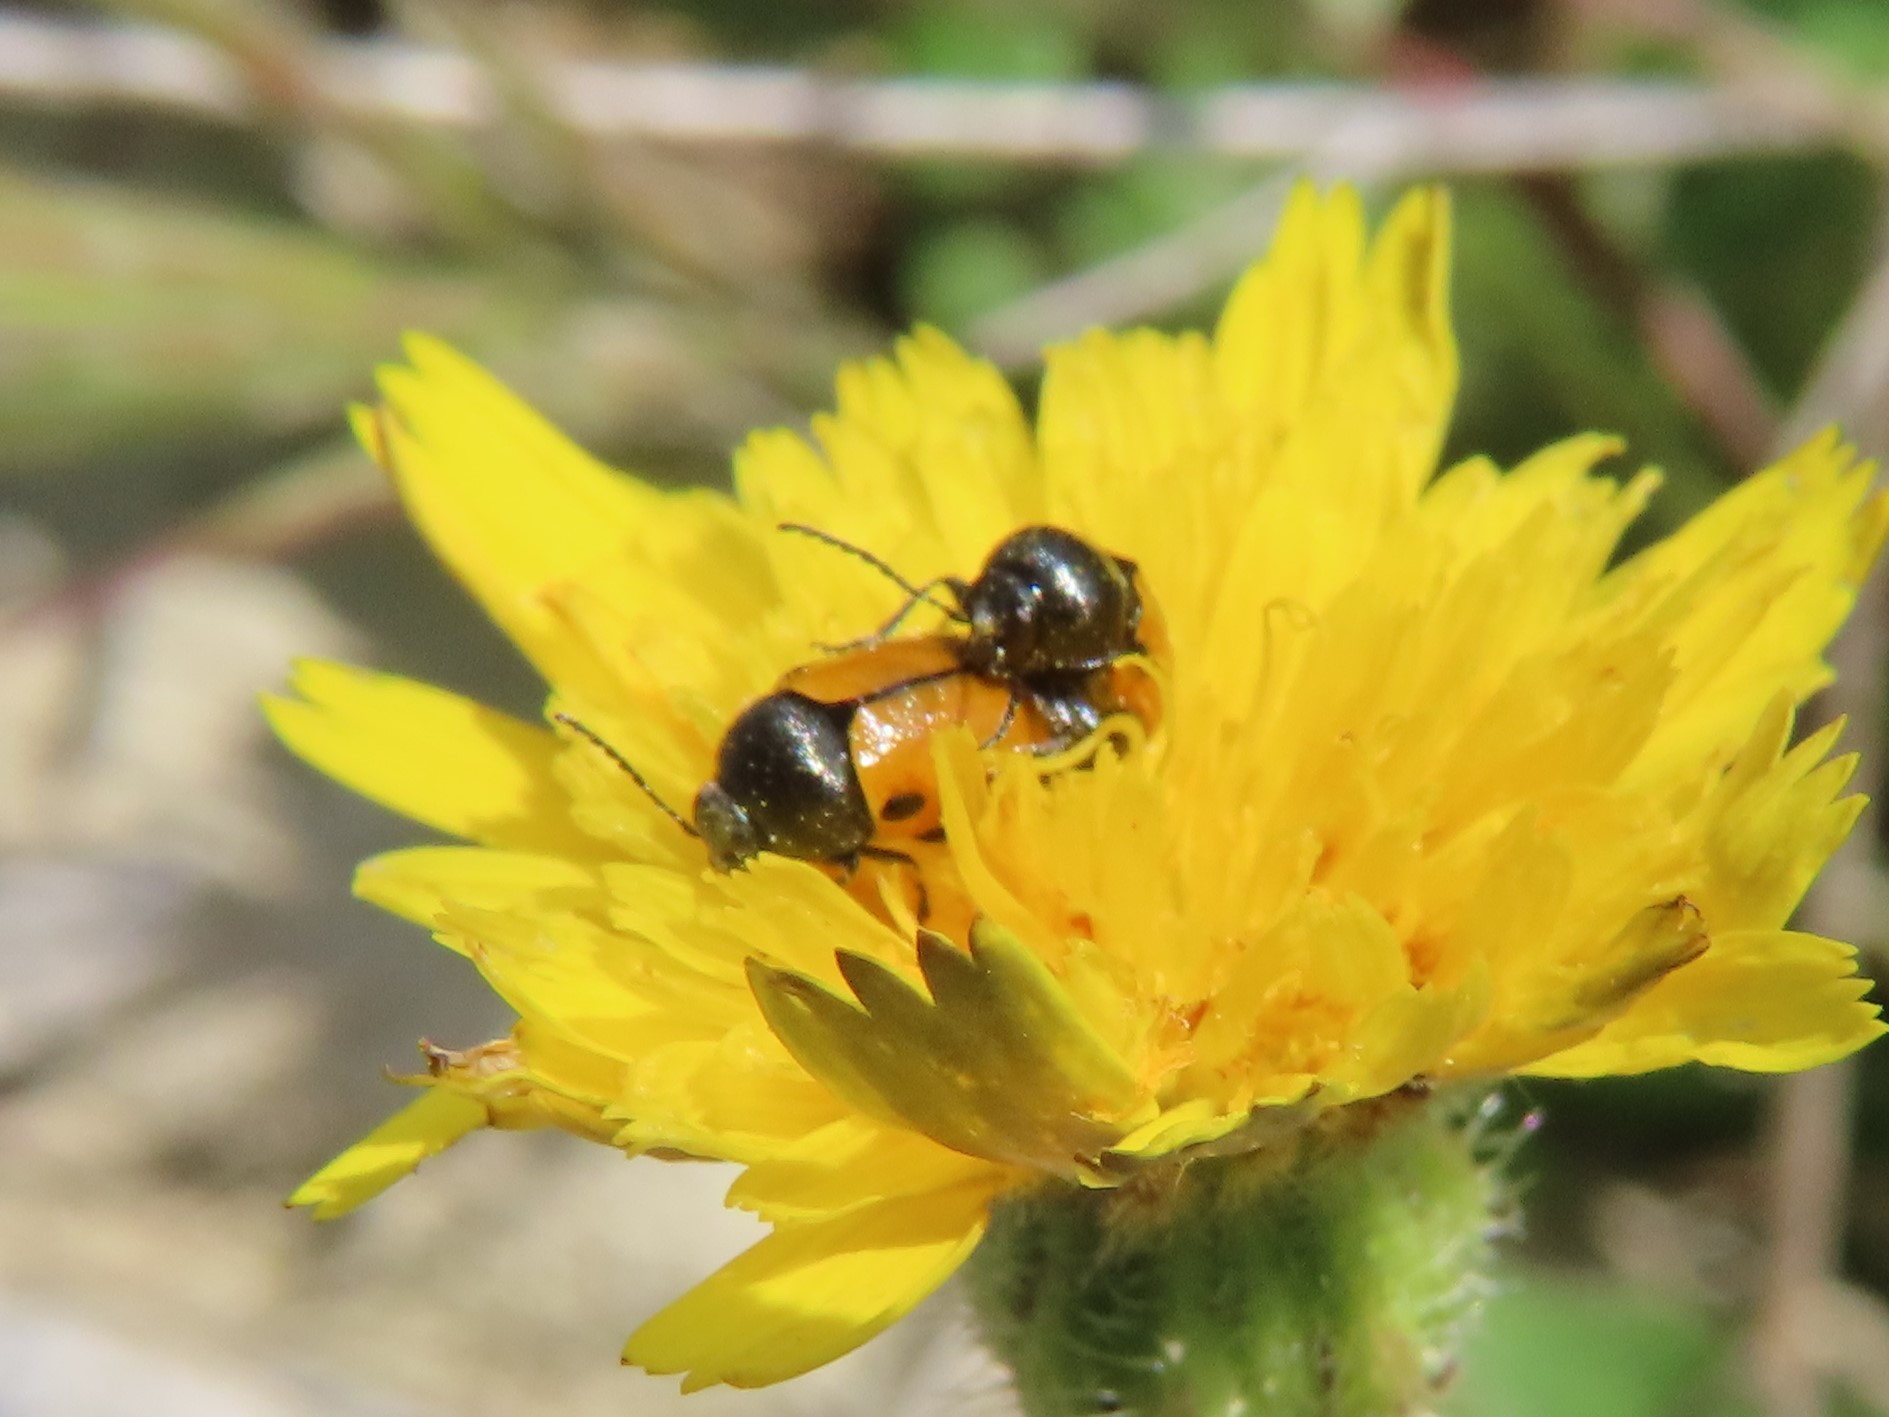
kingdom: Animalia
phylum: Arthropoda
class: Insecta
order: Coleoptera
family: Chrysomelidae
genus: Cryptocephalus
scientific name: Cryptocephalus rugicollis
